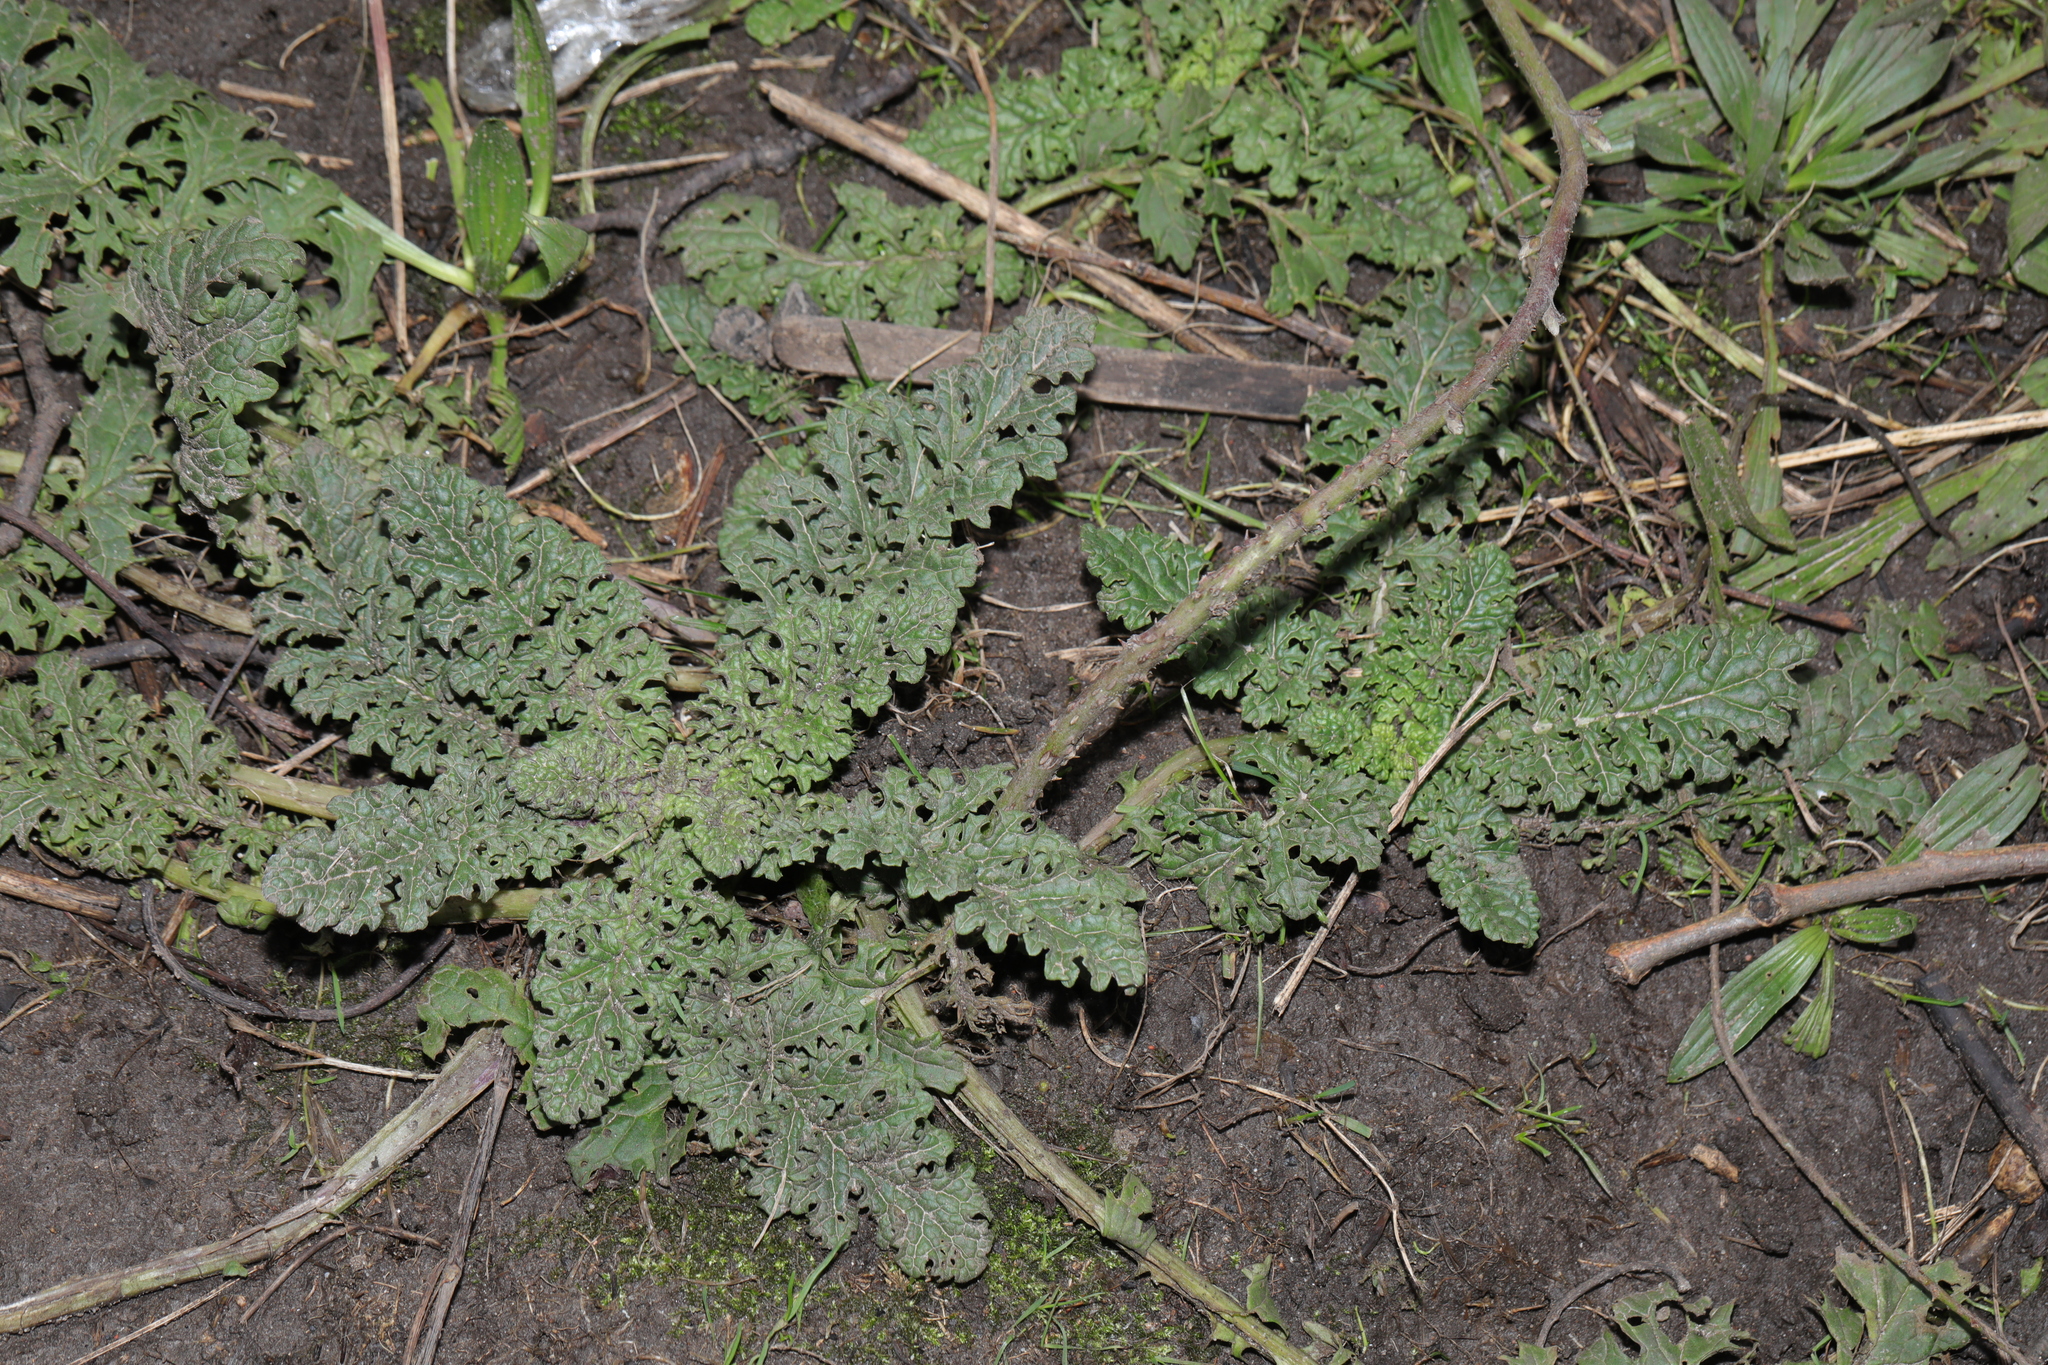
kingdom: Plantae
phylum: Tracheophyta
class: Magnoliopsida
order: Asterales
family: Asteraceae
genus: Jacobaea
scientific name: Jacobaea vulgaris
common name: Stinking willie
